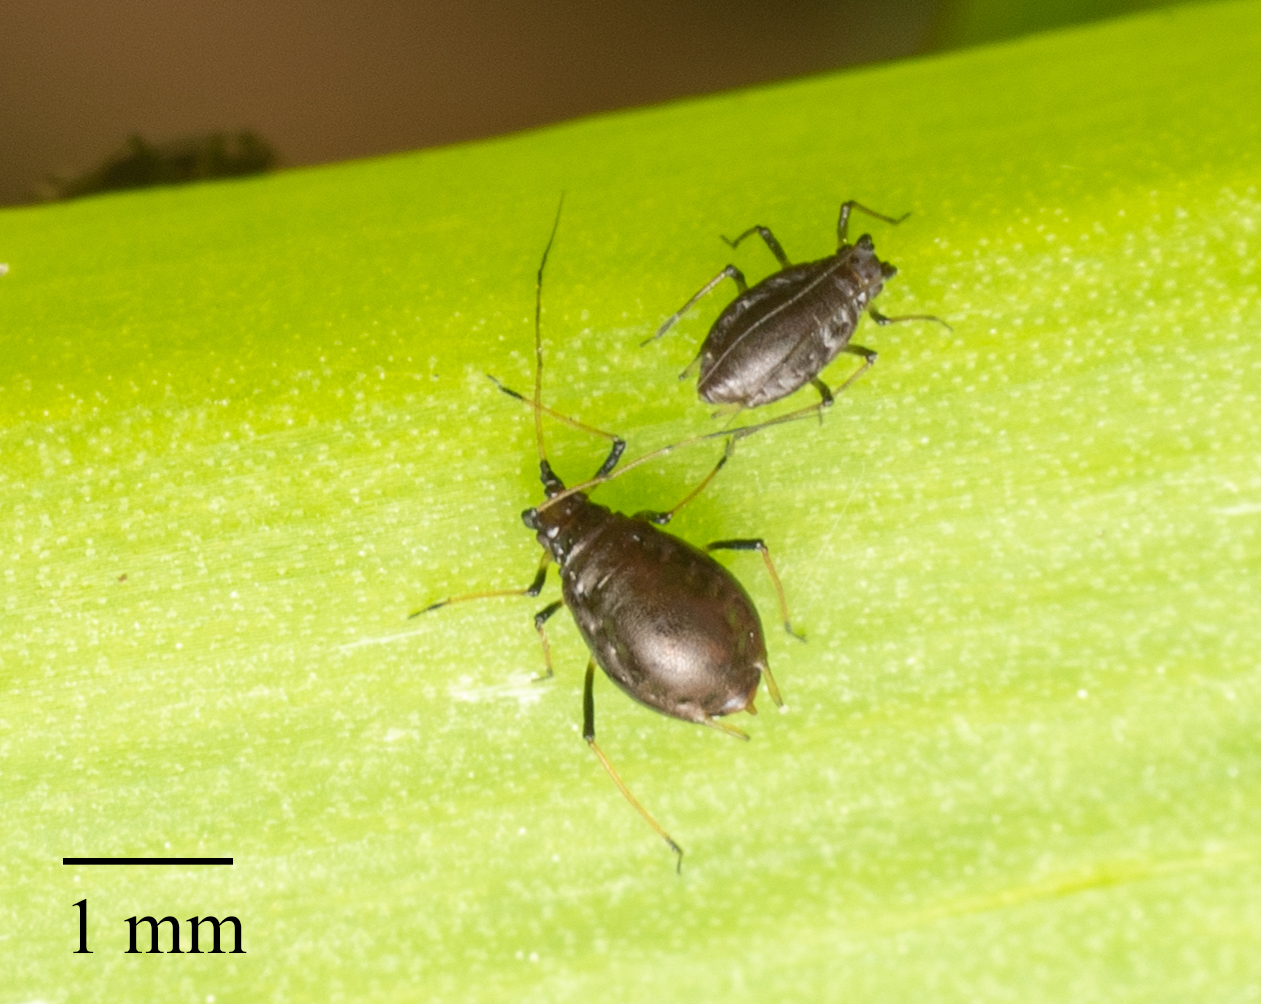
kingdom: Animalia
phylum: Arthropoda
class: Insecta
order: Hemiptera
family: Aphididae
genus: Neotoxoptera
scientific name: Neotoxoptera formosana
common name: Onion aphid
